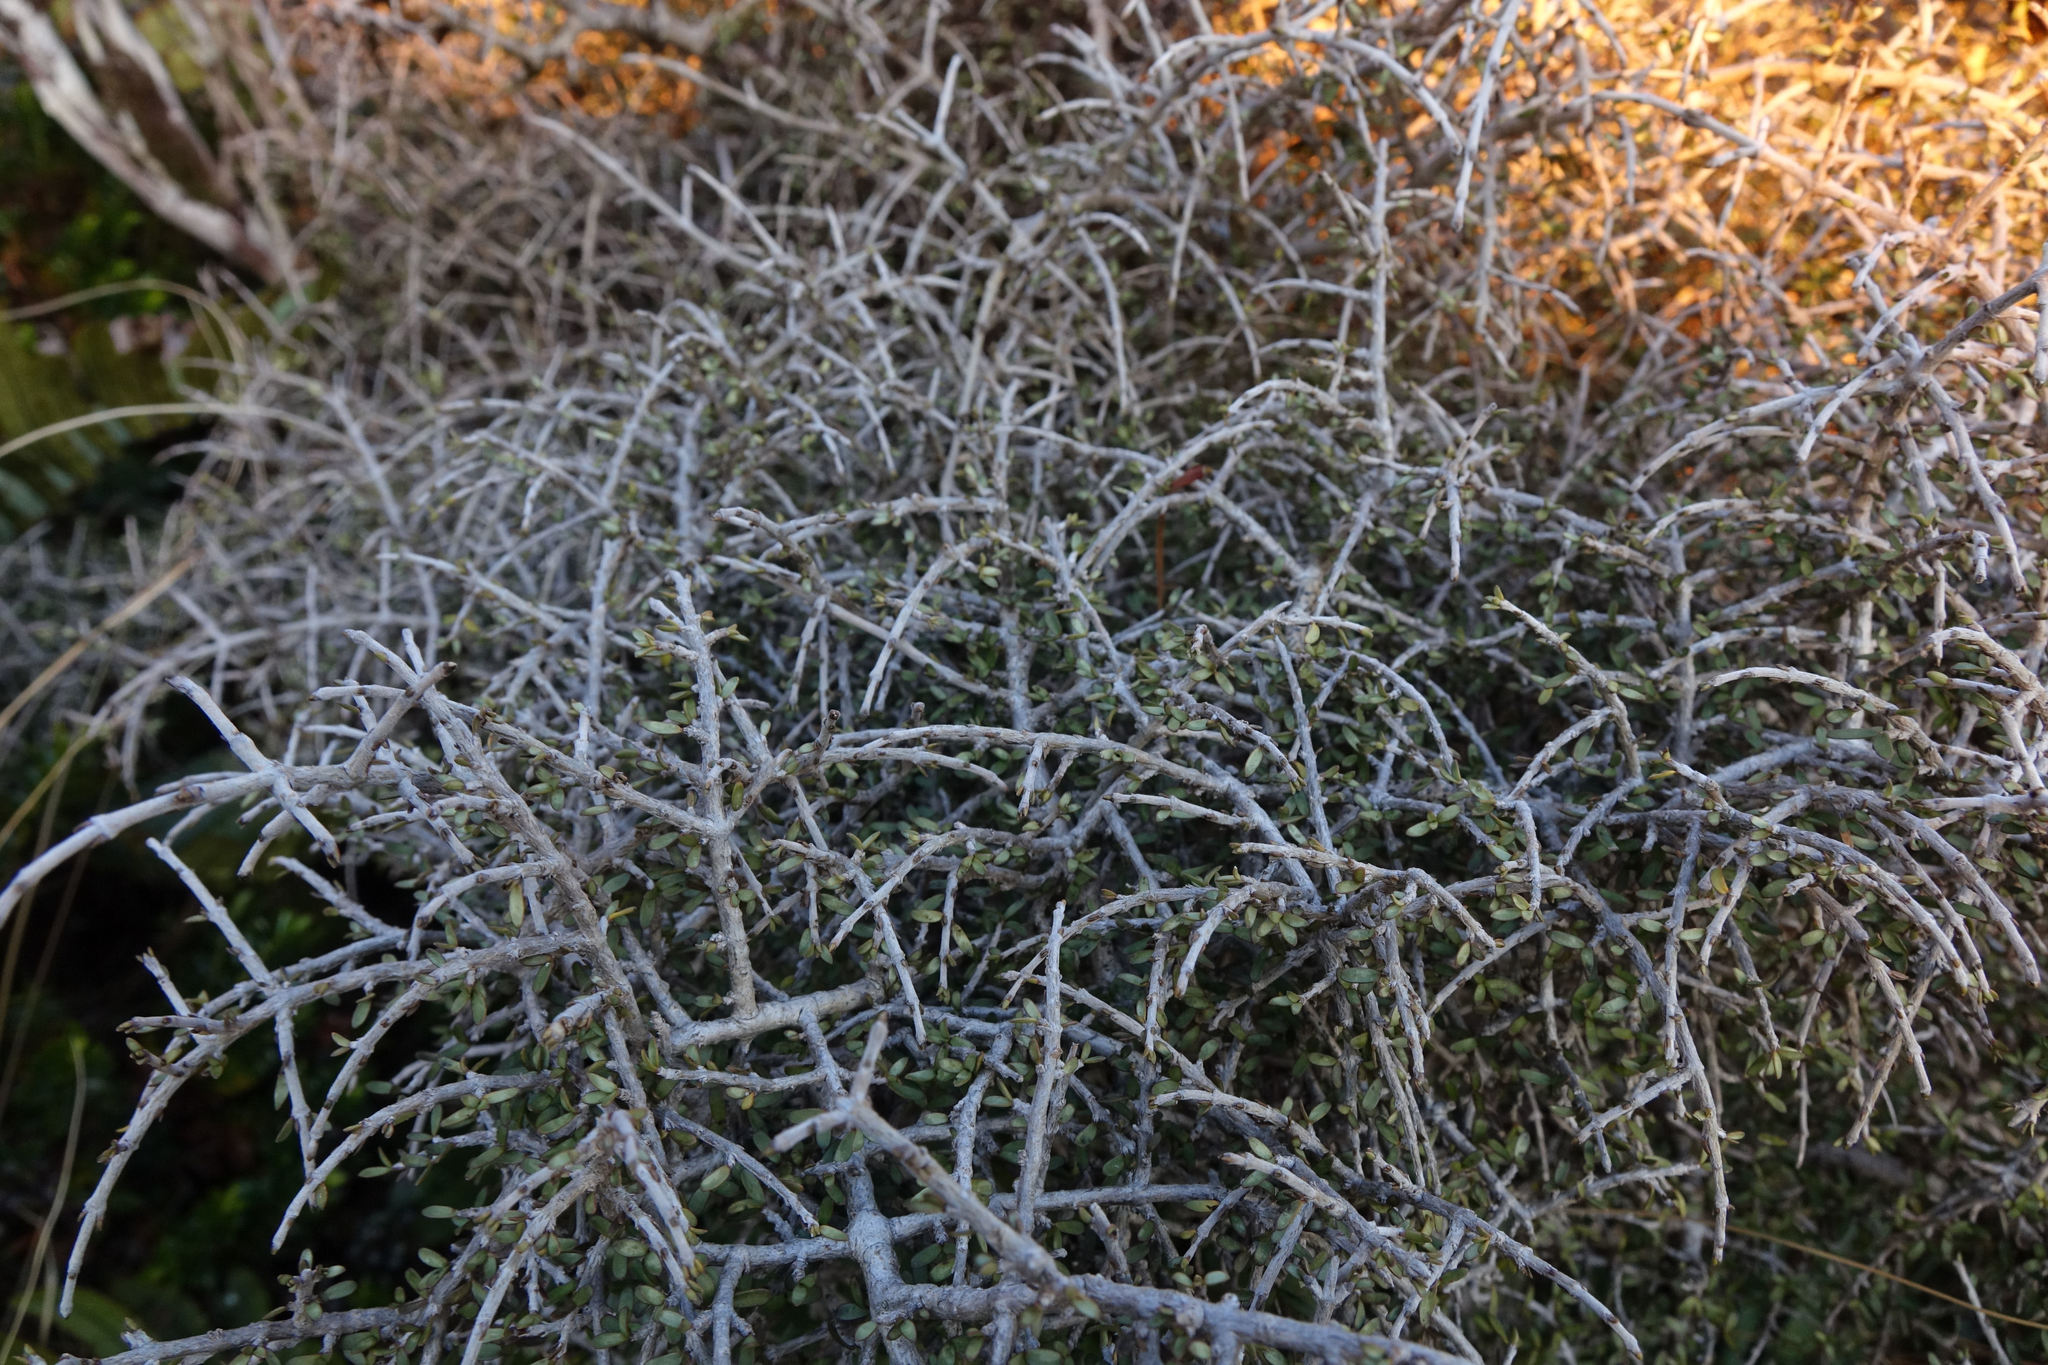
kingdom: Plantae
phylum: Tracheophyta
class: Magnoliopsida
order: Gentianales
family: Rubiaceae
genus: Coprosma
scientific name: Coprosma decurva
